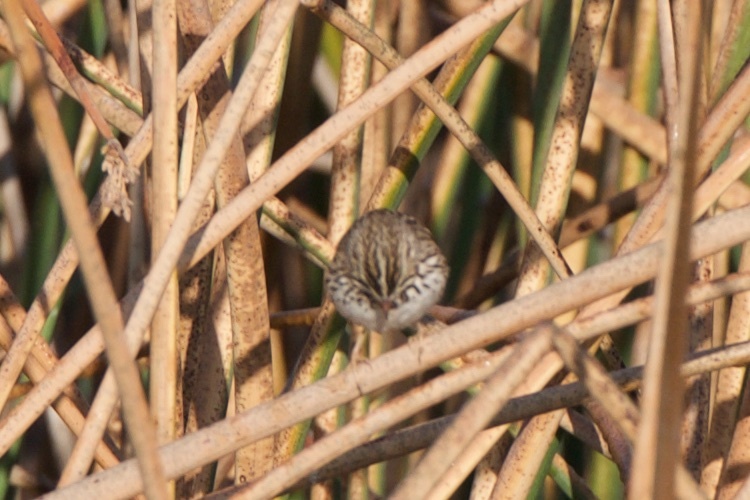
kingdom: Animalia
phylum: Chordata
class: Aves
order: Passeriformes
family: Passerellidae
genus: Passerculus
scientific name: Passerculus sandwichensis
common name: Savannah sparrow
